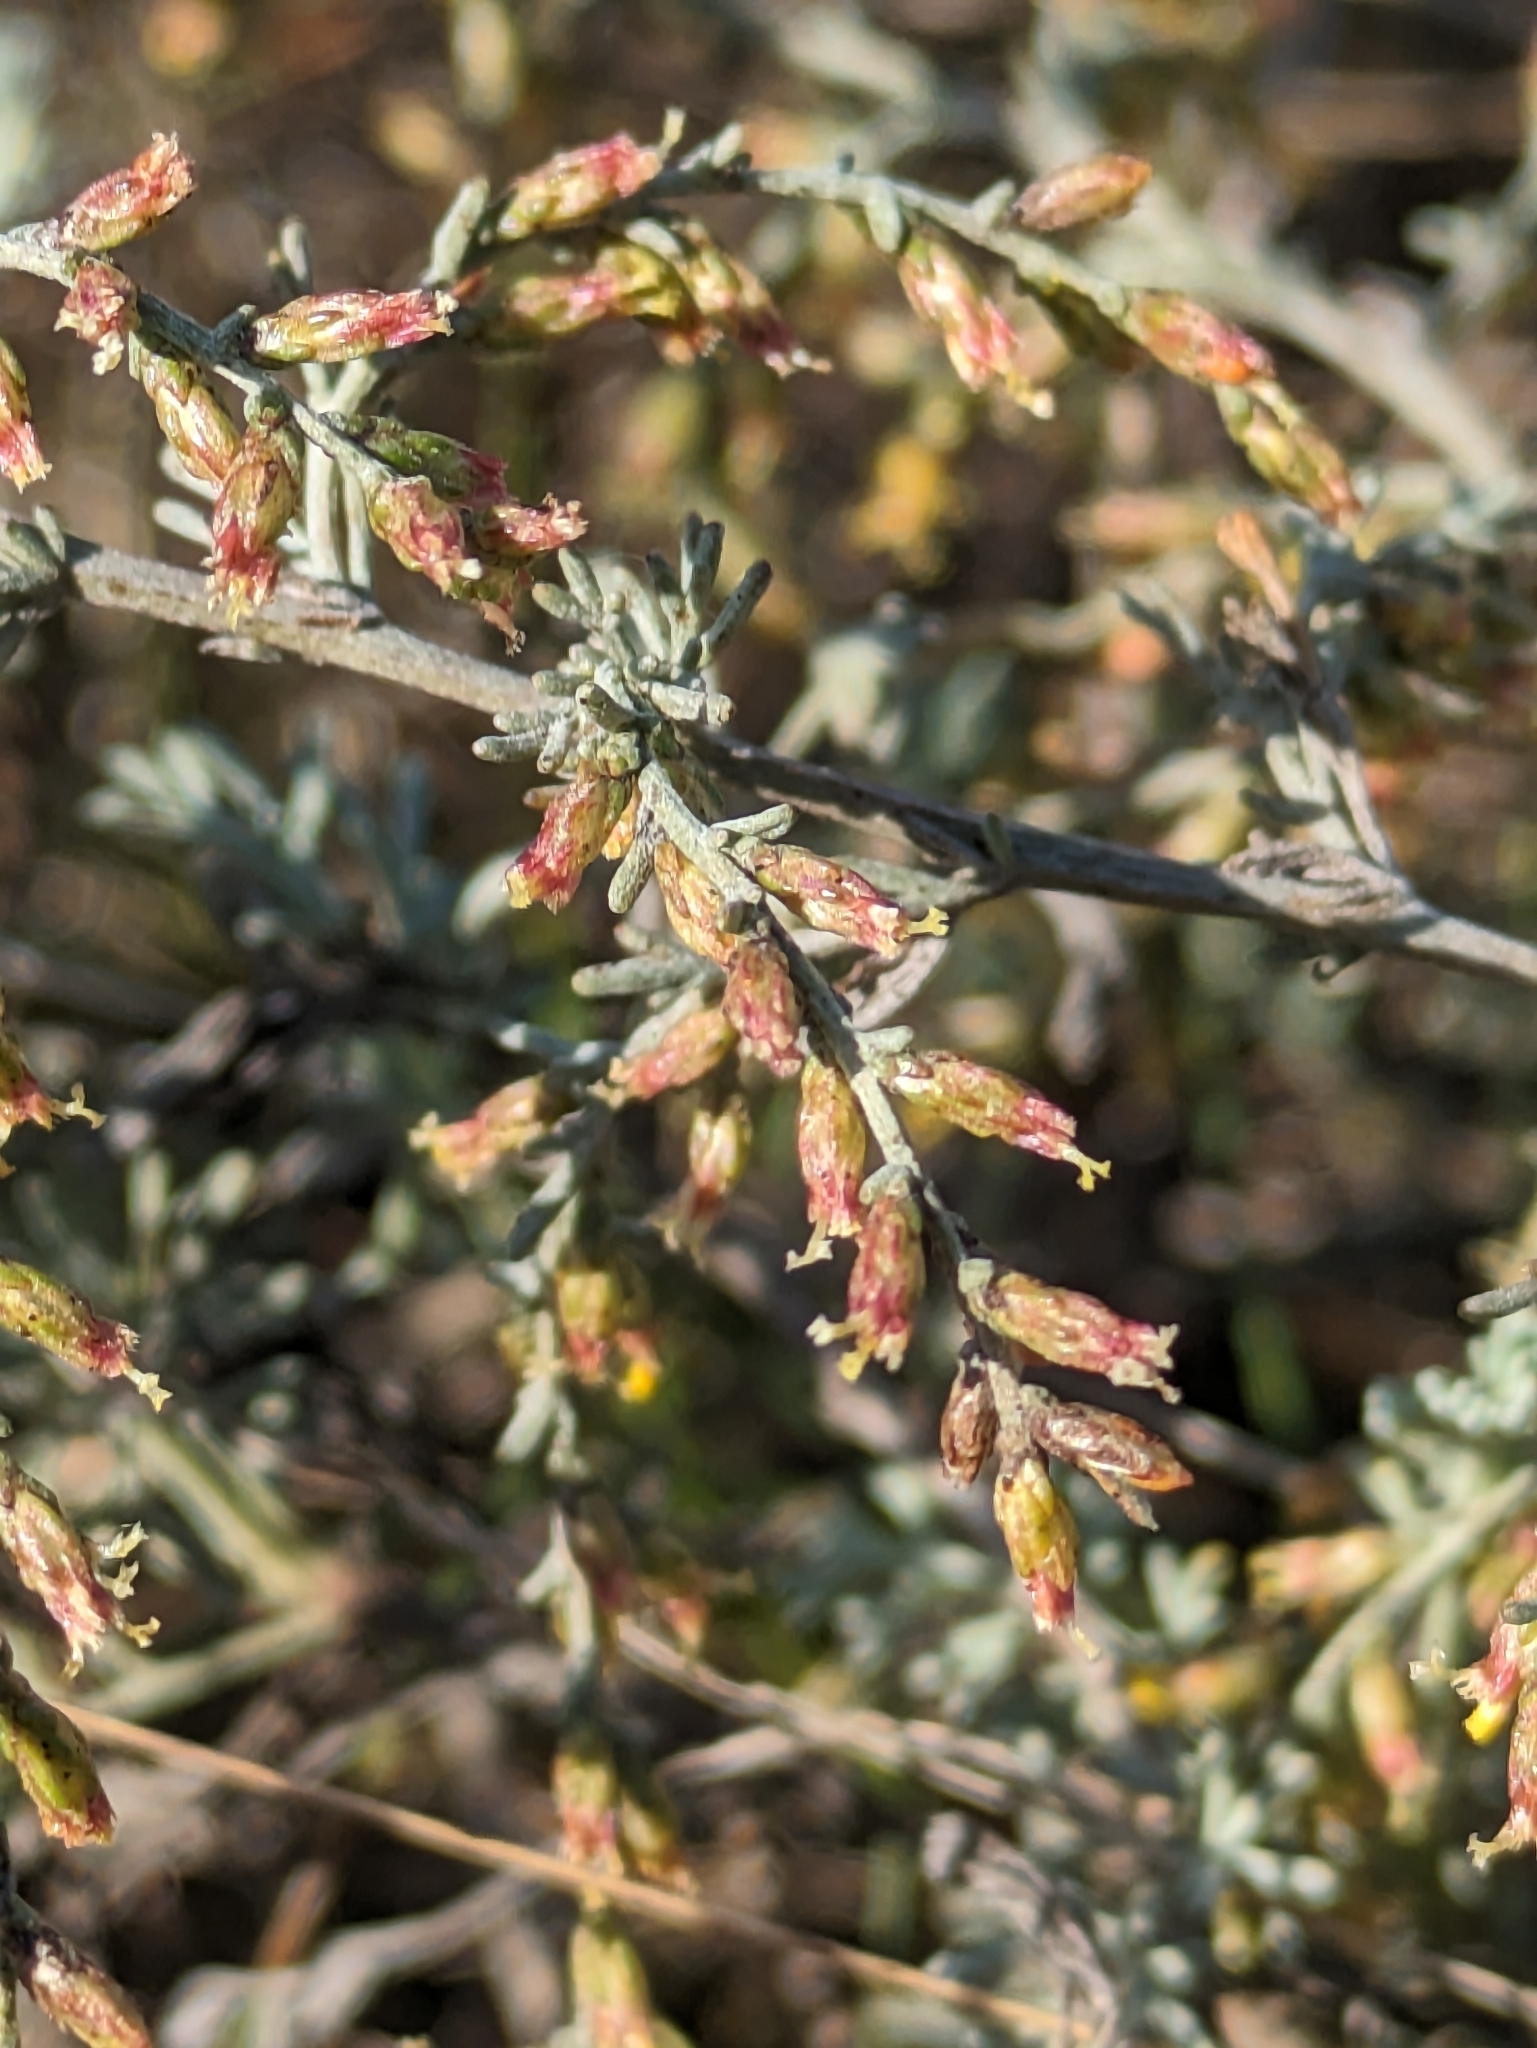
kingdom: Plantae
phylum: Tracheophyta
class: Magnoliopsida
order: Asterales
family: Asteraceae
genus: Artemisia
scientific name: Artemisia santonicum
